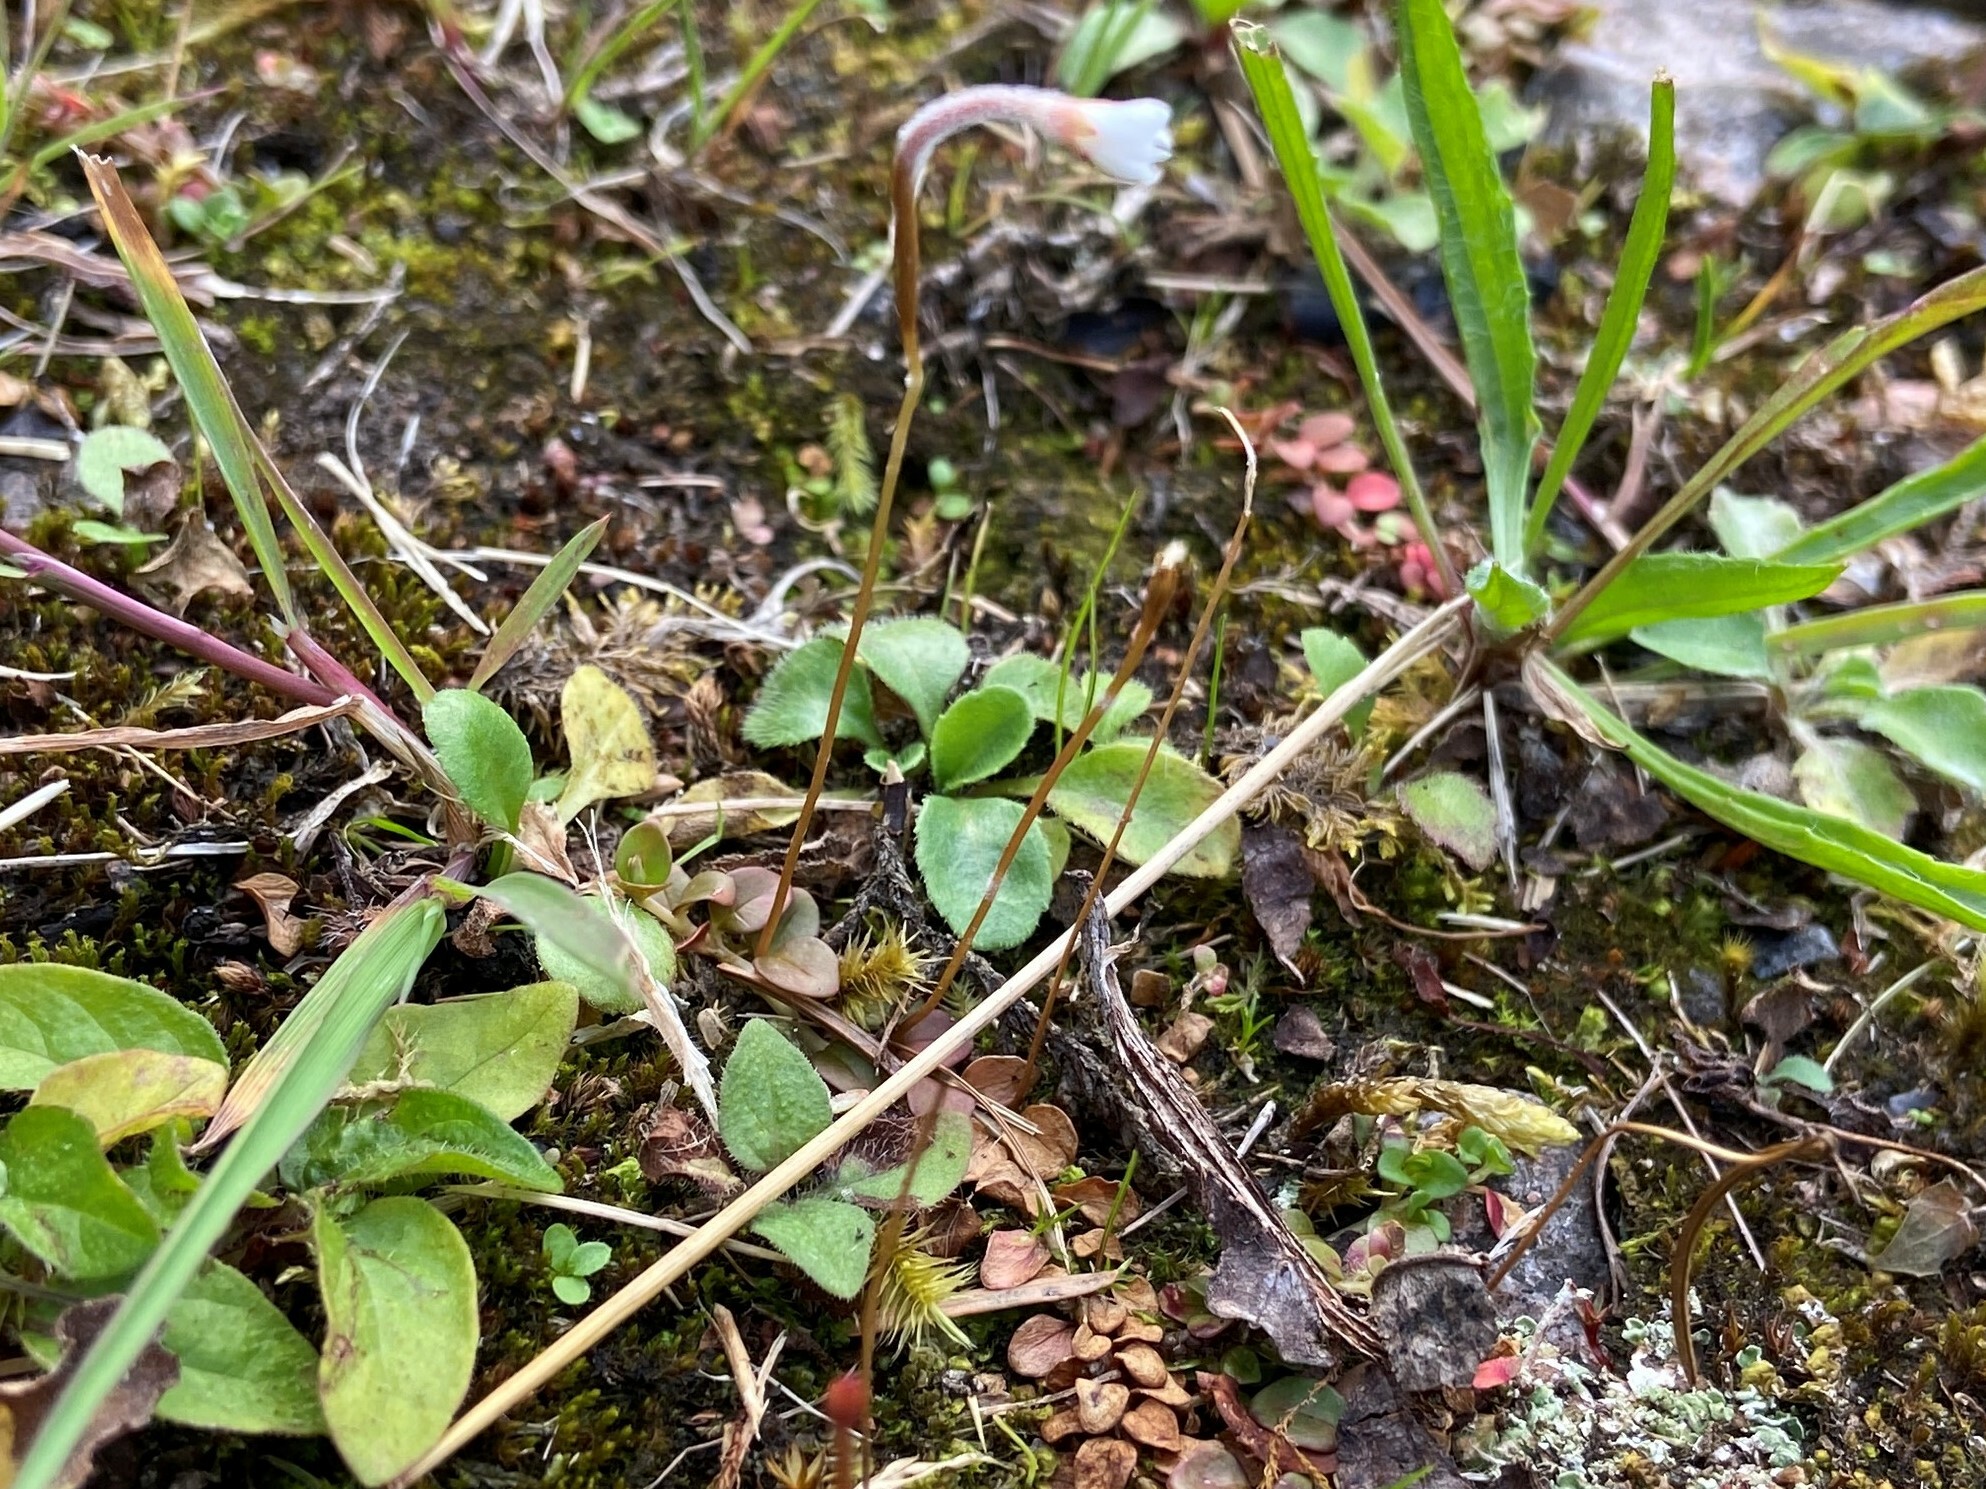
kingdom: Plantae
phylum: Tracheophyta
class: Magnoliopsida
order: Myrtales
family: Onagraceae
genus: Epilobium
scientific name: Epilobium brunnescens
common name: New zealand willowherb
